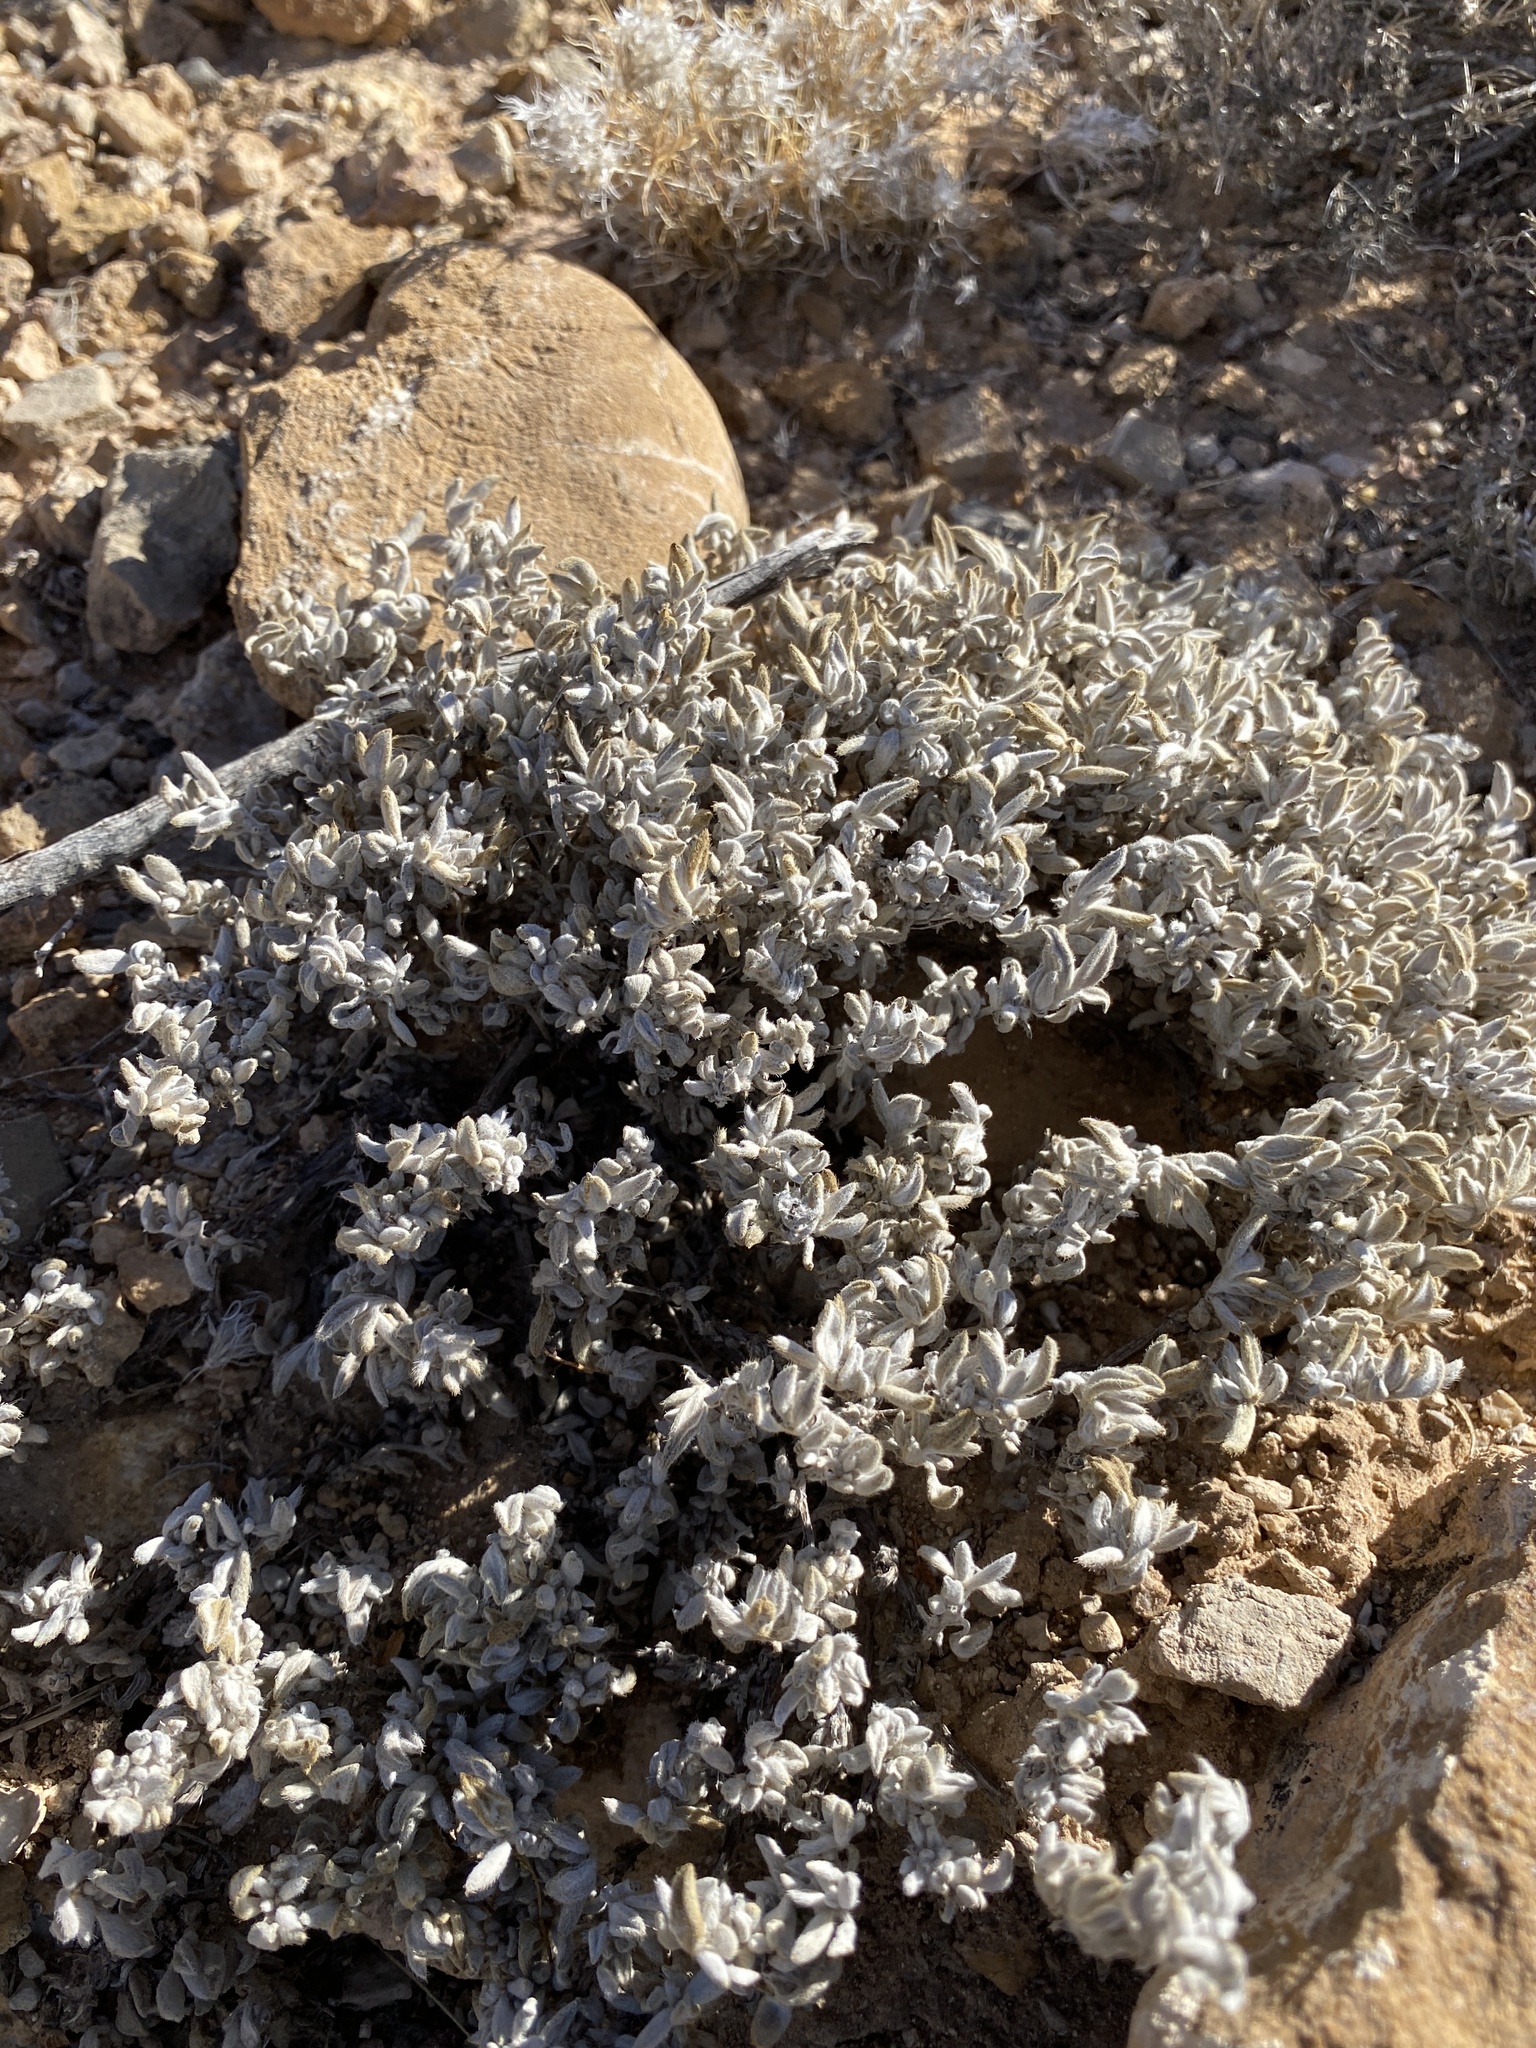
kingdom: Plantae
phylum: Tracheophyta
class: Magnoliopsida
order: Boraginales
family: Ehretiaceae
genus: Tiquilia
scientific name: Tiquilia canescens
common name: Hairy tiquilia
